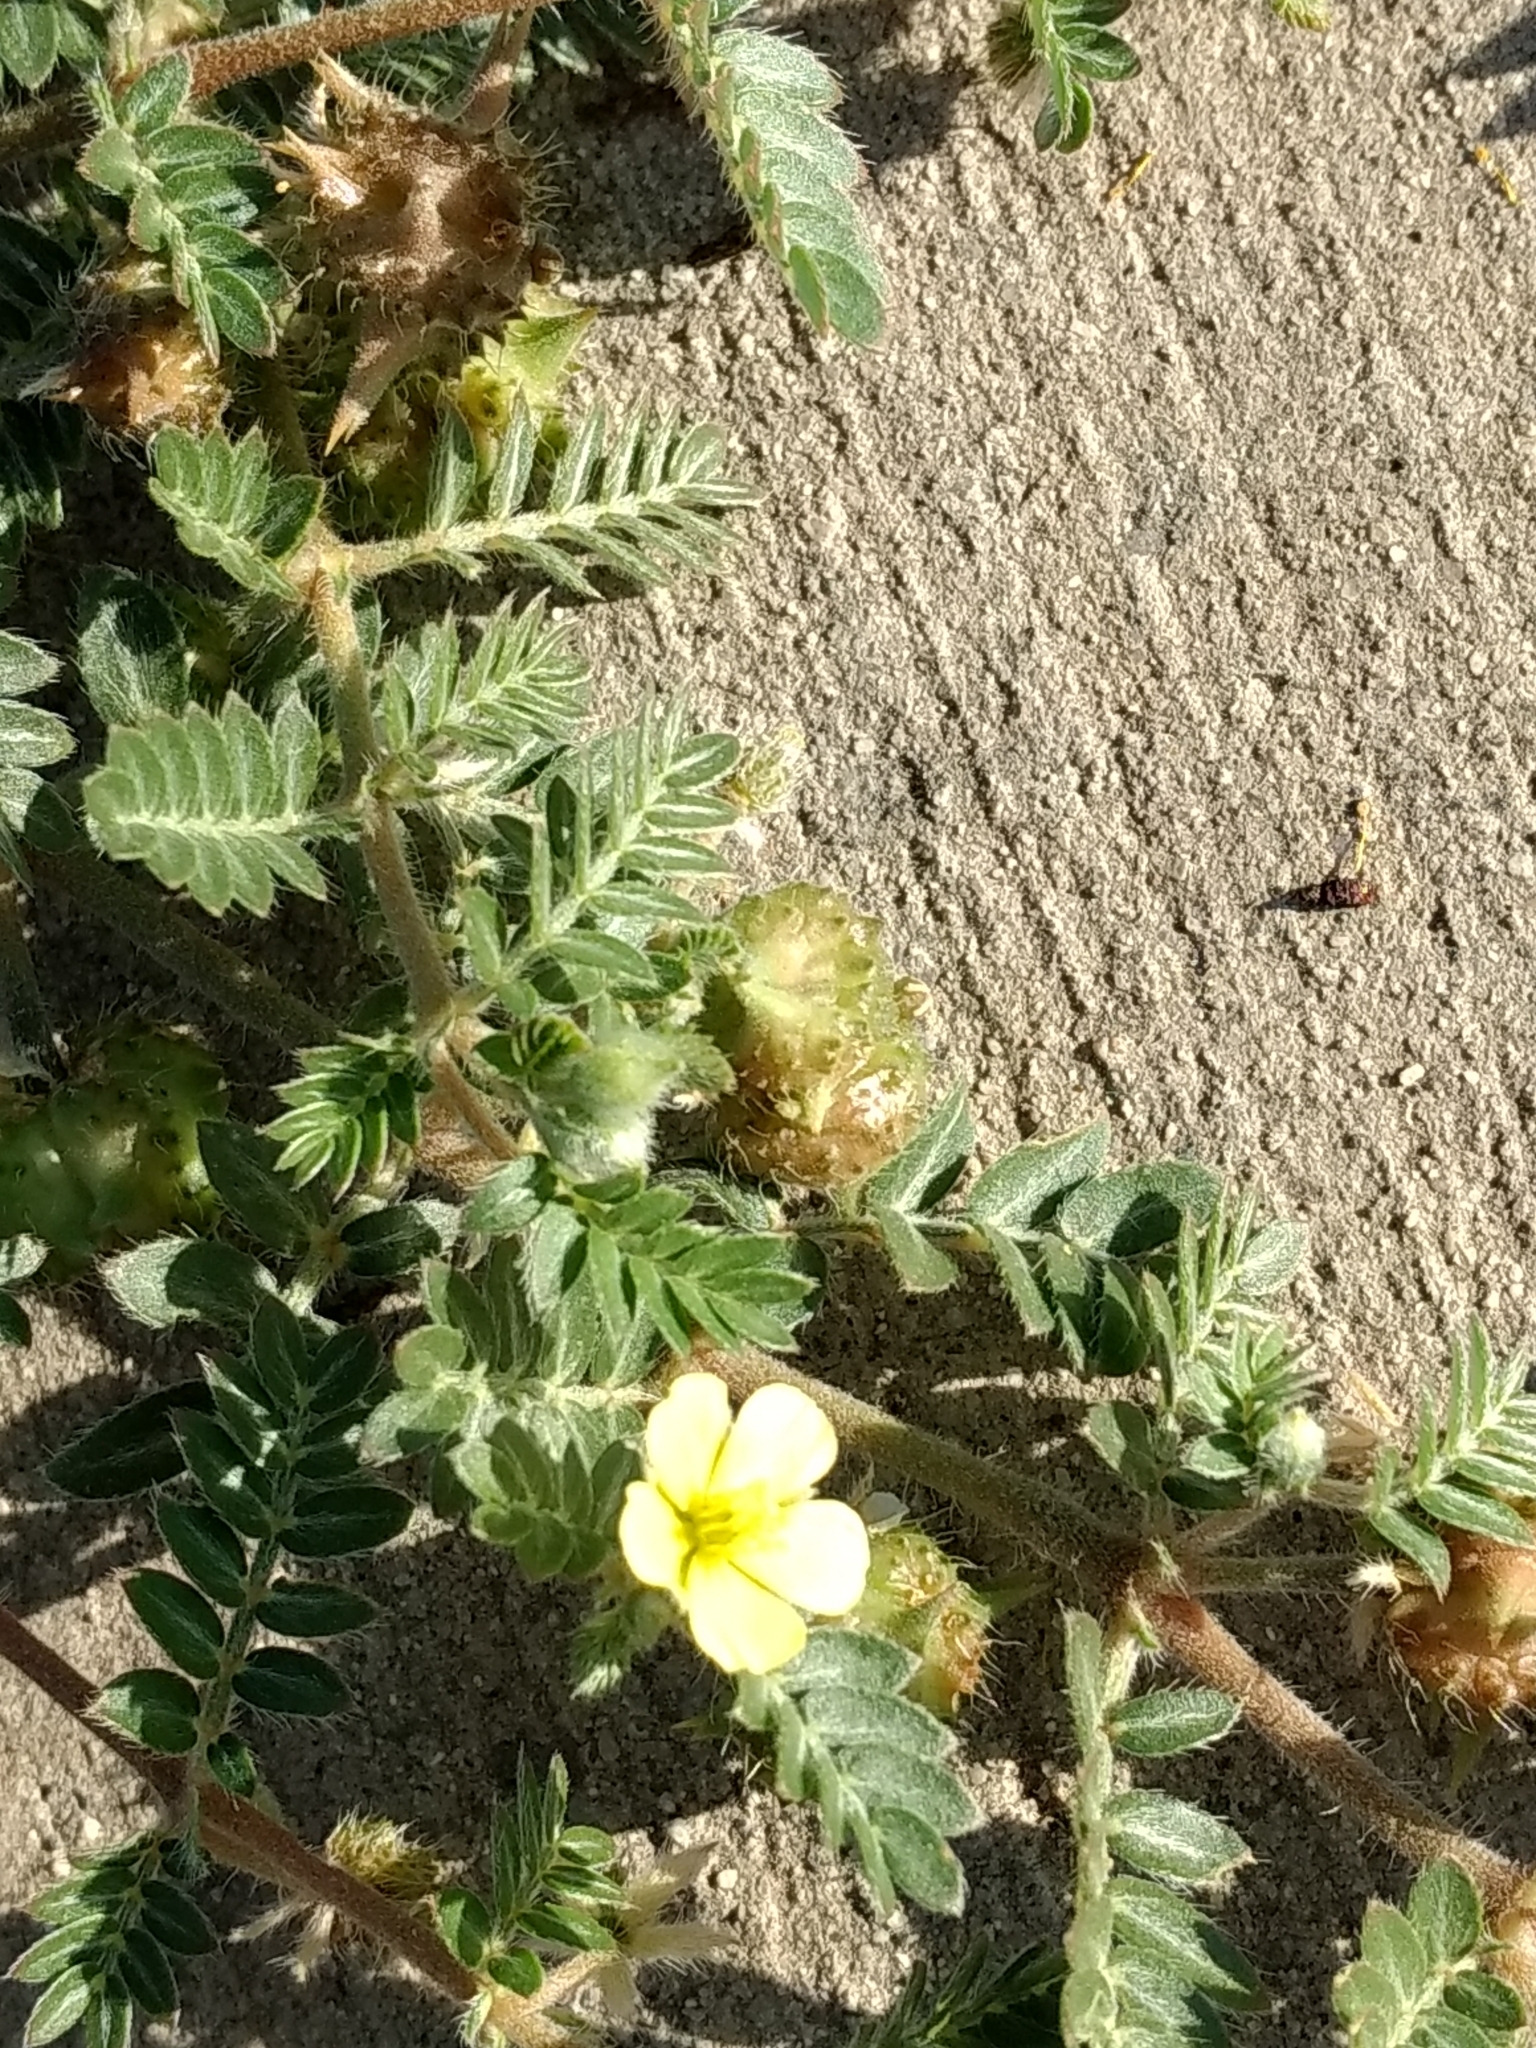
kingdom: Plantae
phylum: Tracheophyta
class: Magnoliopsida
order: Zygophyllales
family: Zygophyllaceae
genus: Tribulus
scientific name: Tribulus terrestris
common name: Puncturevine
